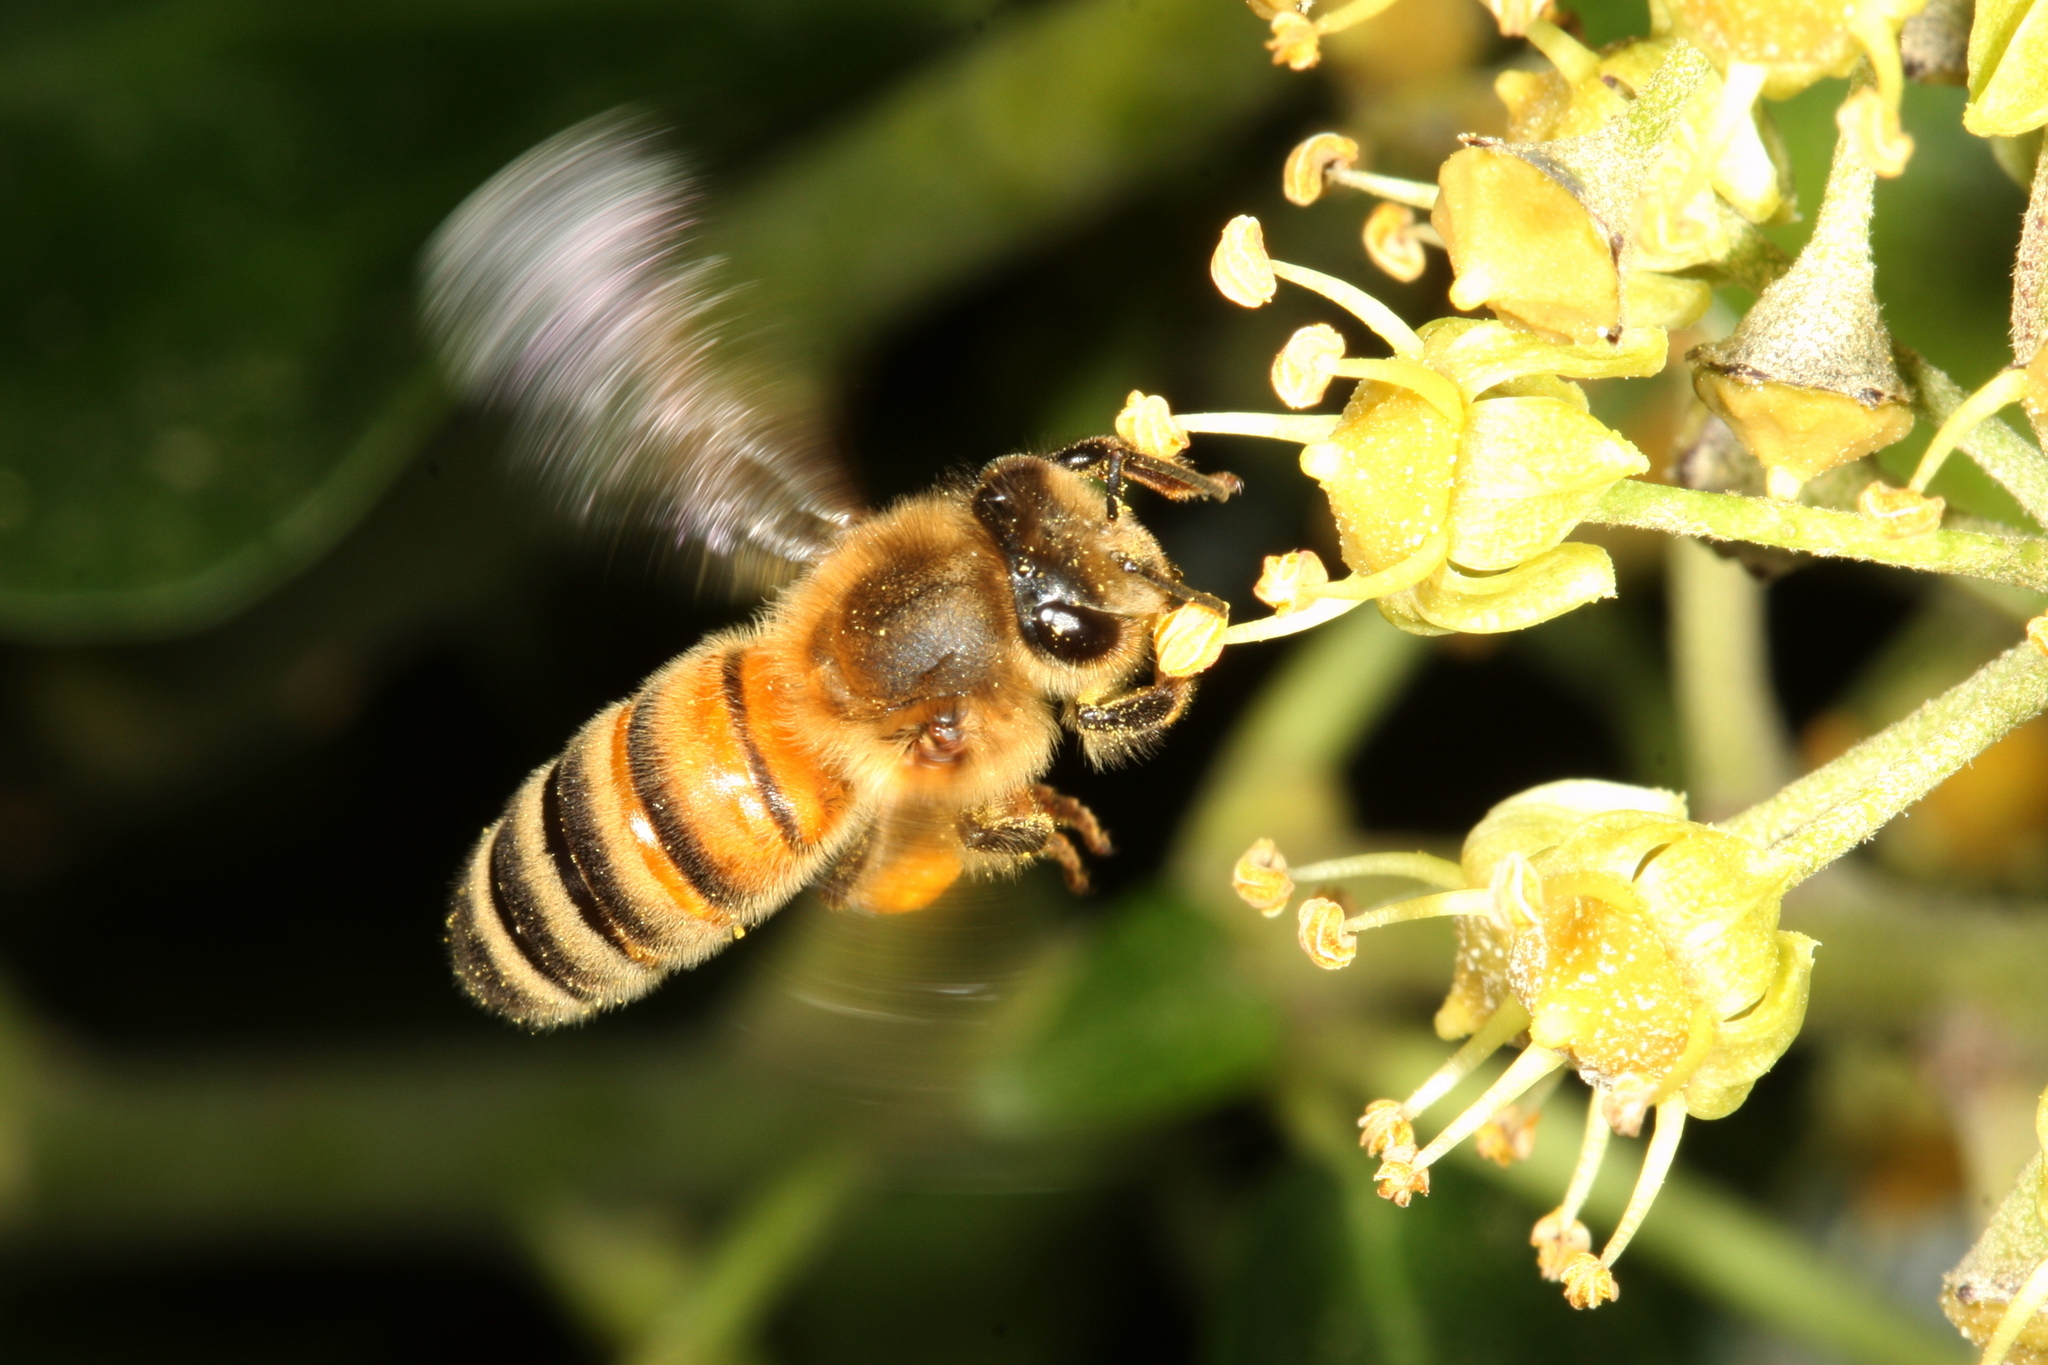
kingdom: Animalia
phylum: Arthropoda
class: Insecta
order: Hymenoptera
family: Apidae
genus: Apis
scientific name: Apis mellifera
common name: Honey bee
